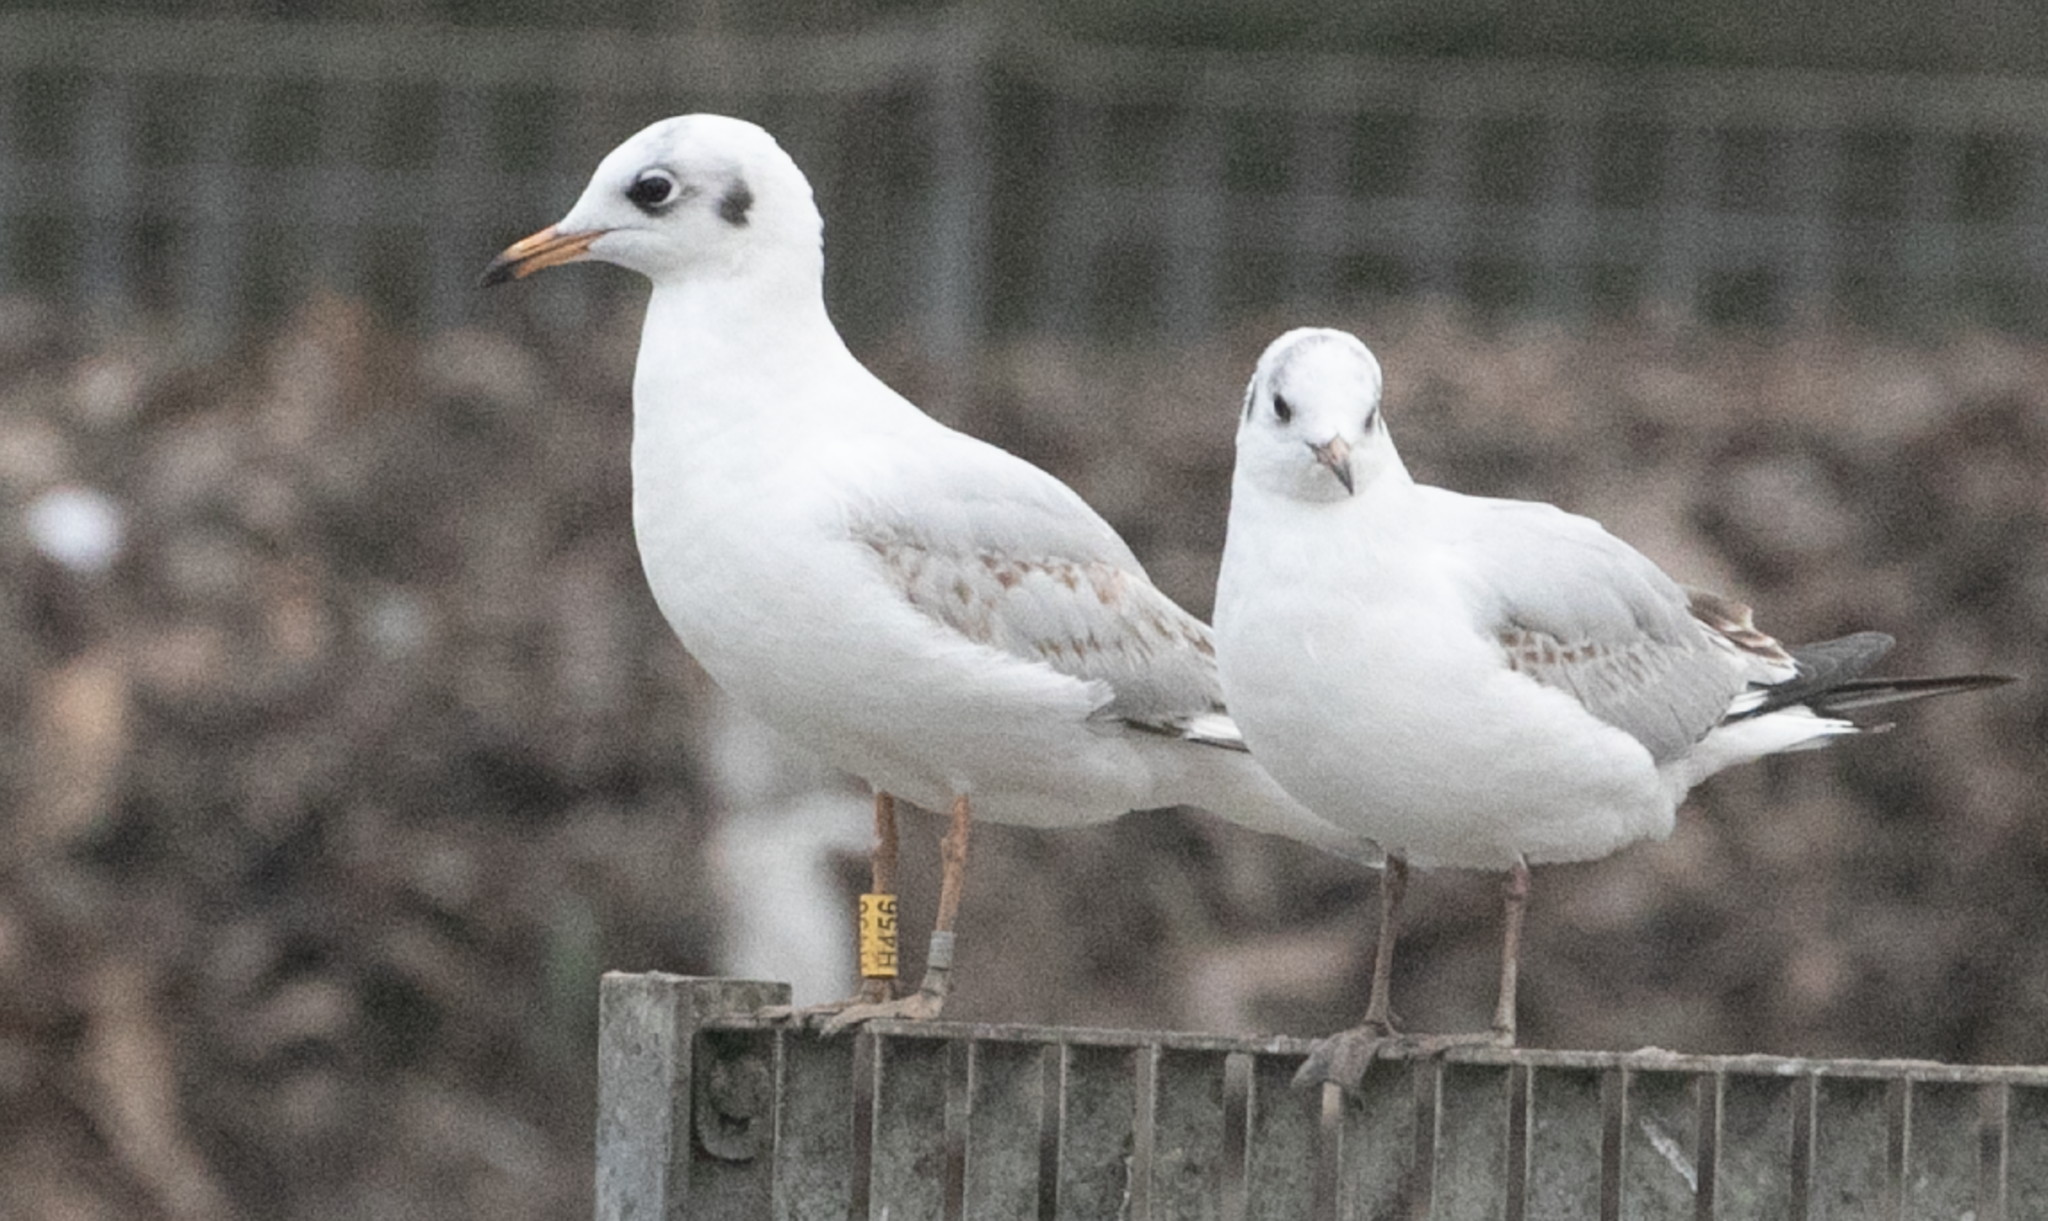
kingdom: Animalia
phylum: Chordata
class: Aves
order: Charadriiformes
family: Laridae
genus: Chroicocephalus
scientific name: Chroicocephalus ridibundus
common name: Black-headed gull
